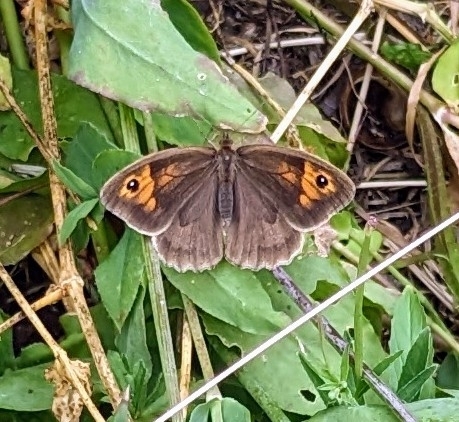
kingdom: Animalia
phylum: Arthropoda
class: Insecta
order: Lepidoptera
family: Nymphalidae
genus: Maniola
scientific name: Maniola jurtina
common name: Meadow brown
